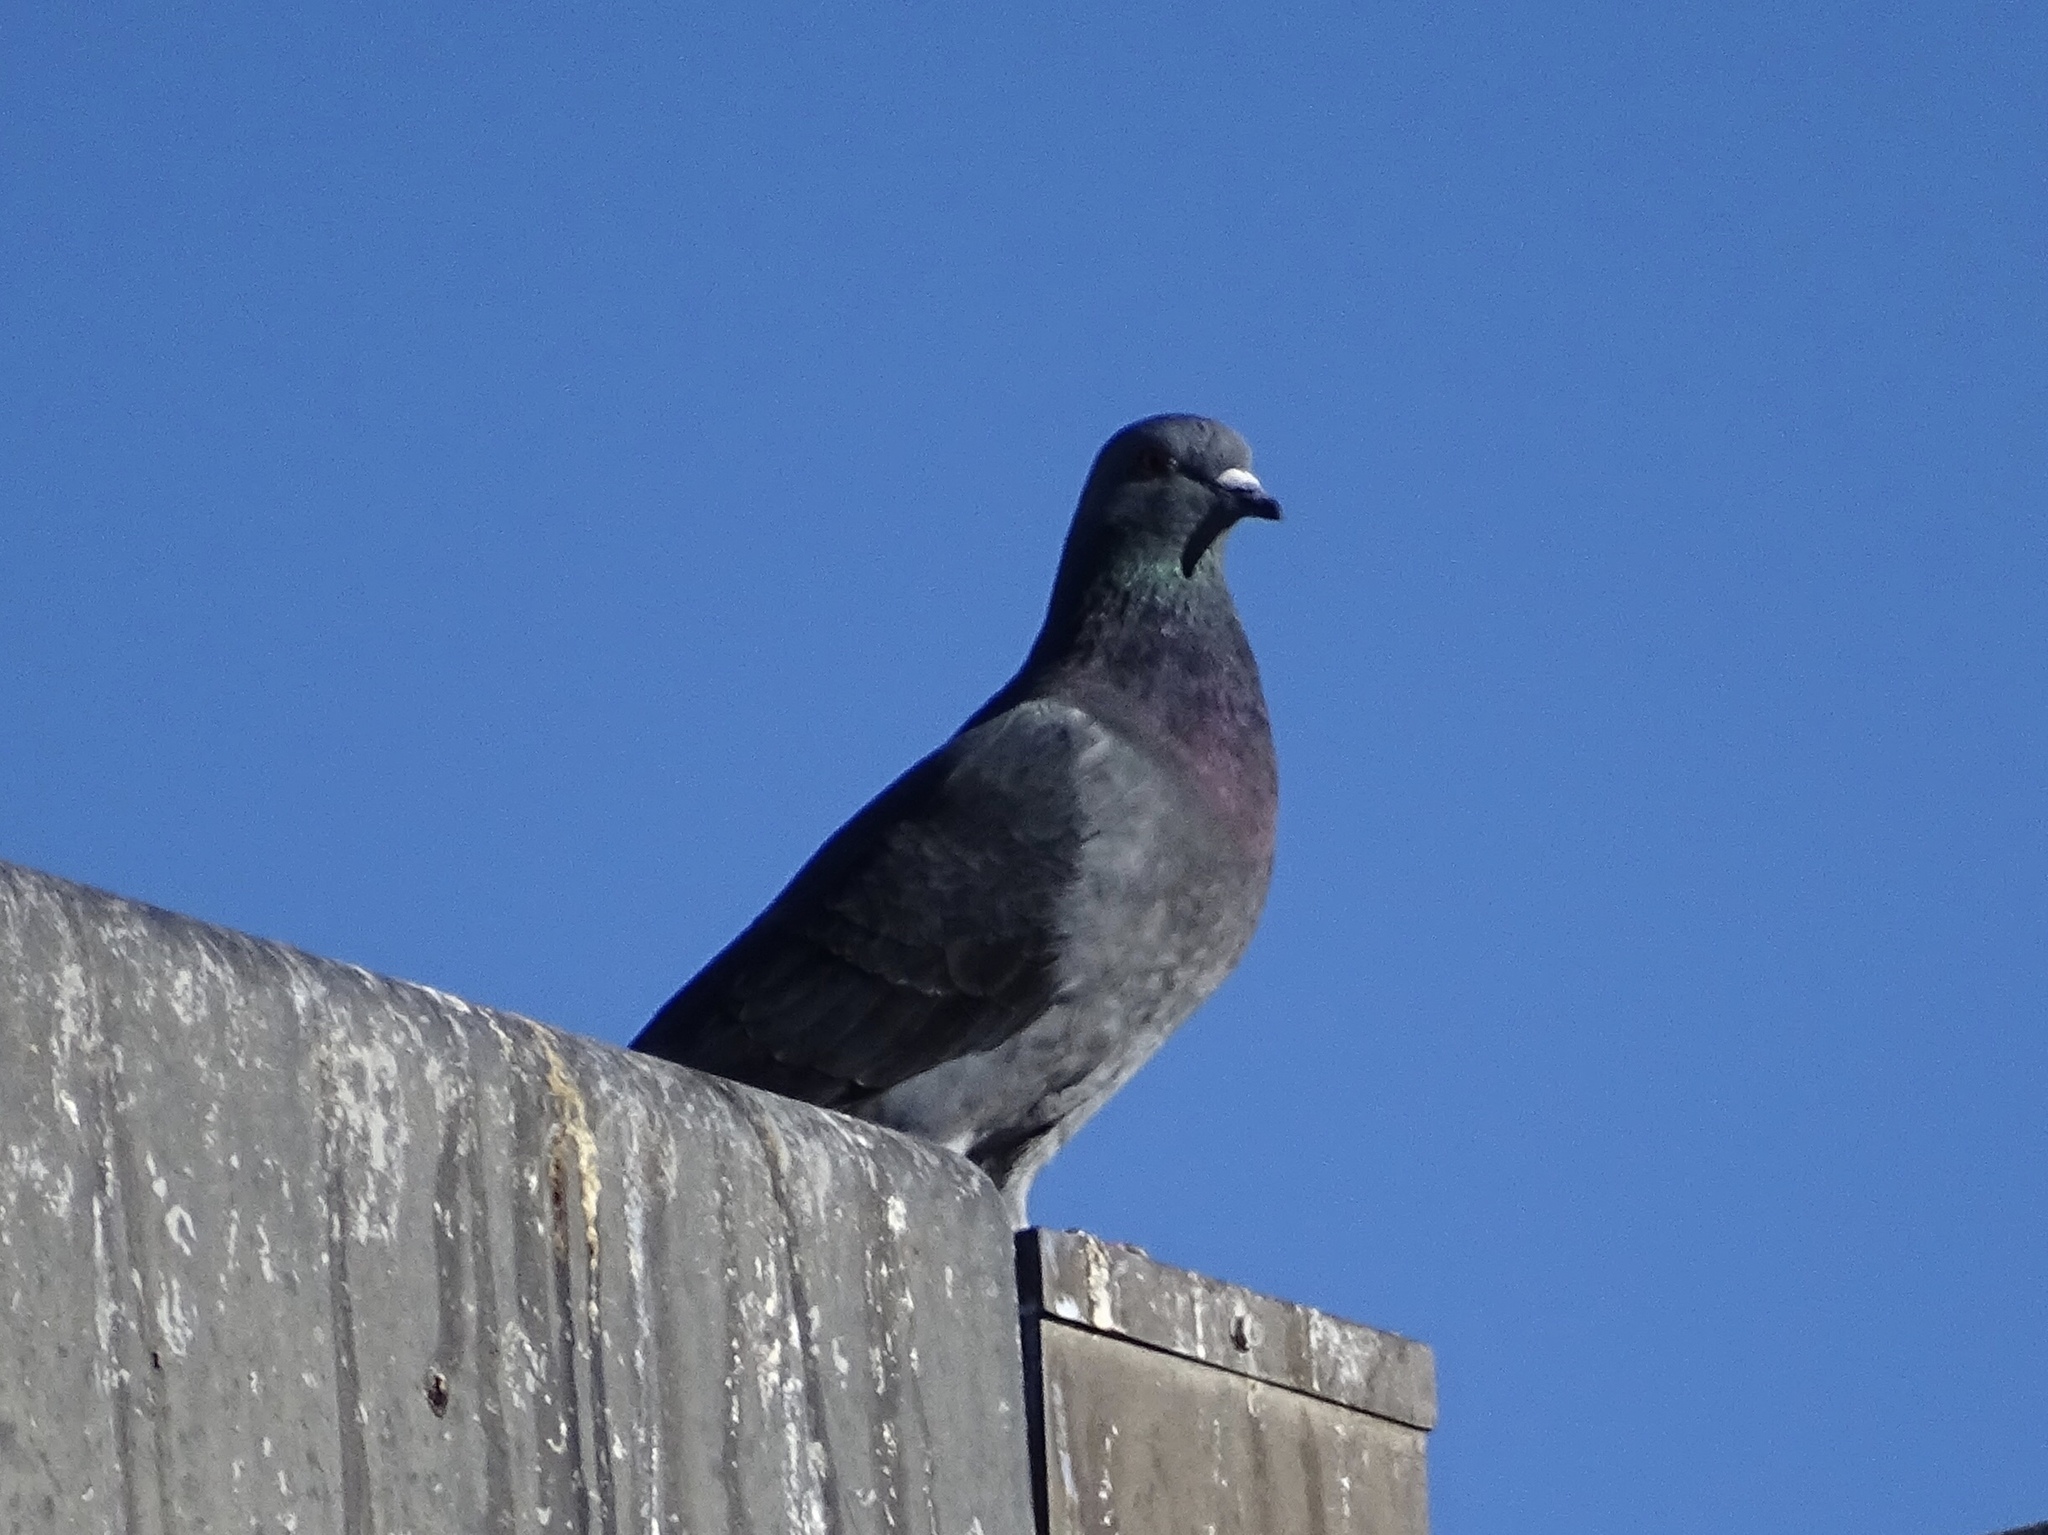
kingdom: Animalia
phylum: Chordata
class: Aves
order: Columbiformes
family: Columbidae
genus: Columba
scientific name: Columba livia
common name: Rock pigeon
